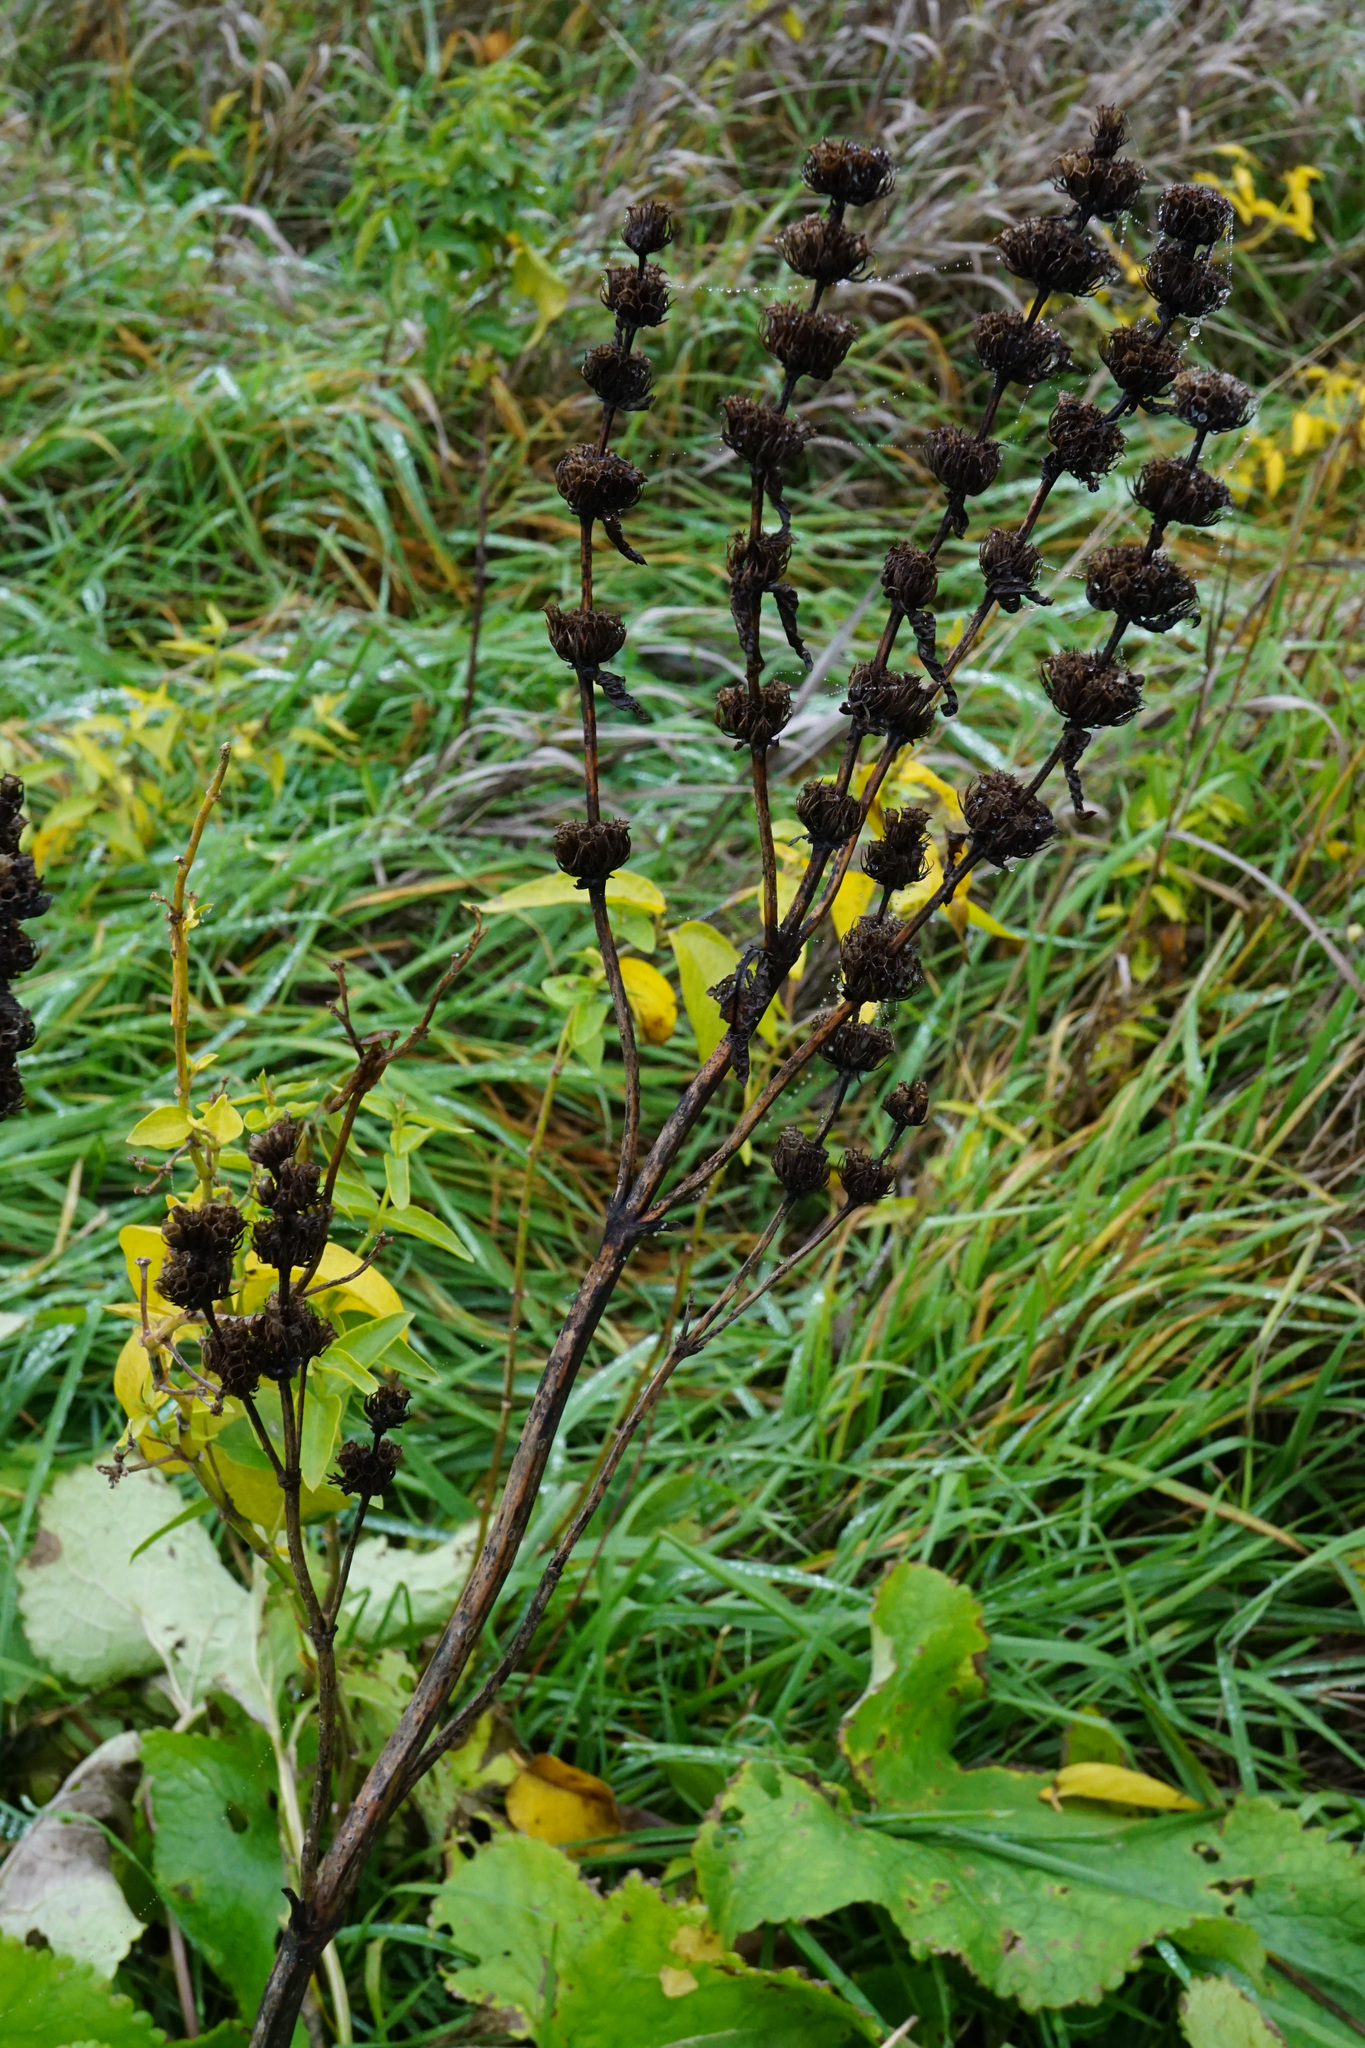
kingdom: Plantae
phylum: Tracheophyta
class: Magnoliopsida
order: Lamiales
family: Lamiaceae
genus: Phlomoides
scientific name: Phlomoides tuberosa
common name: Tuberous jerusalem sage
